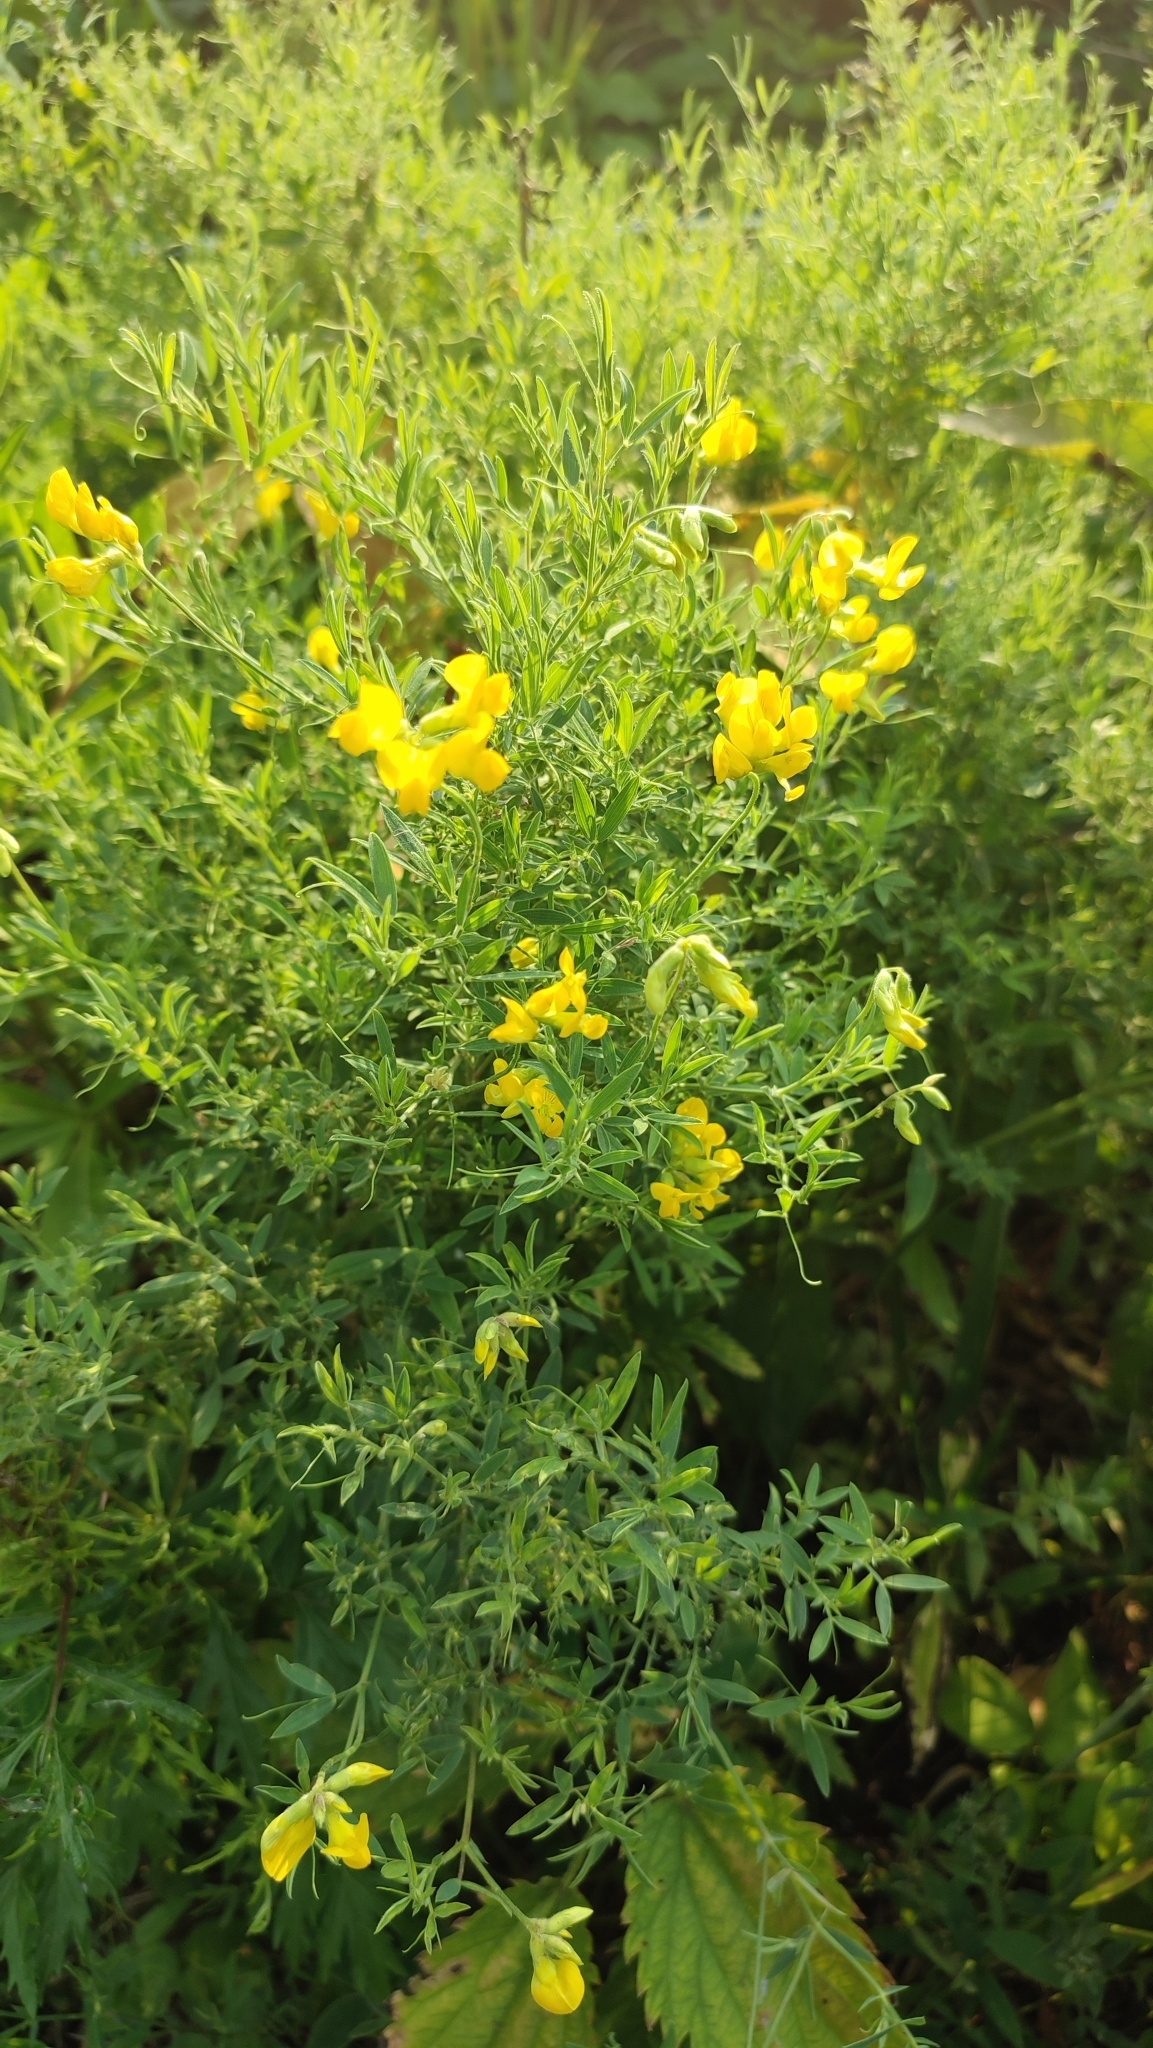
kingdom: Plantae
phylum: Tracheophyta
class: Magnoliopsida
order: Fabales
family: Fabaceae
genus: Lathyrus
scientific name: Lathyrus pratensis
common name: Meadow vetchling
